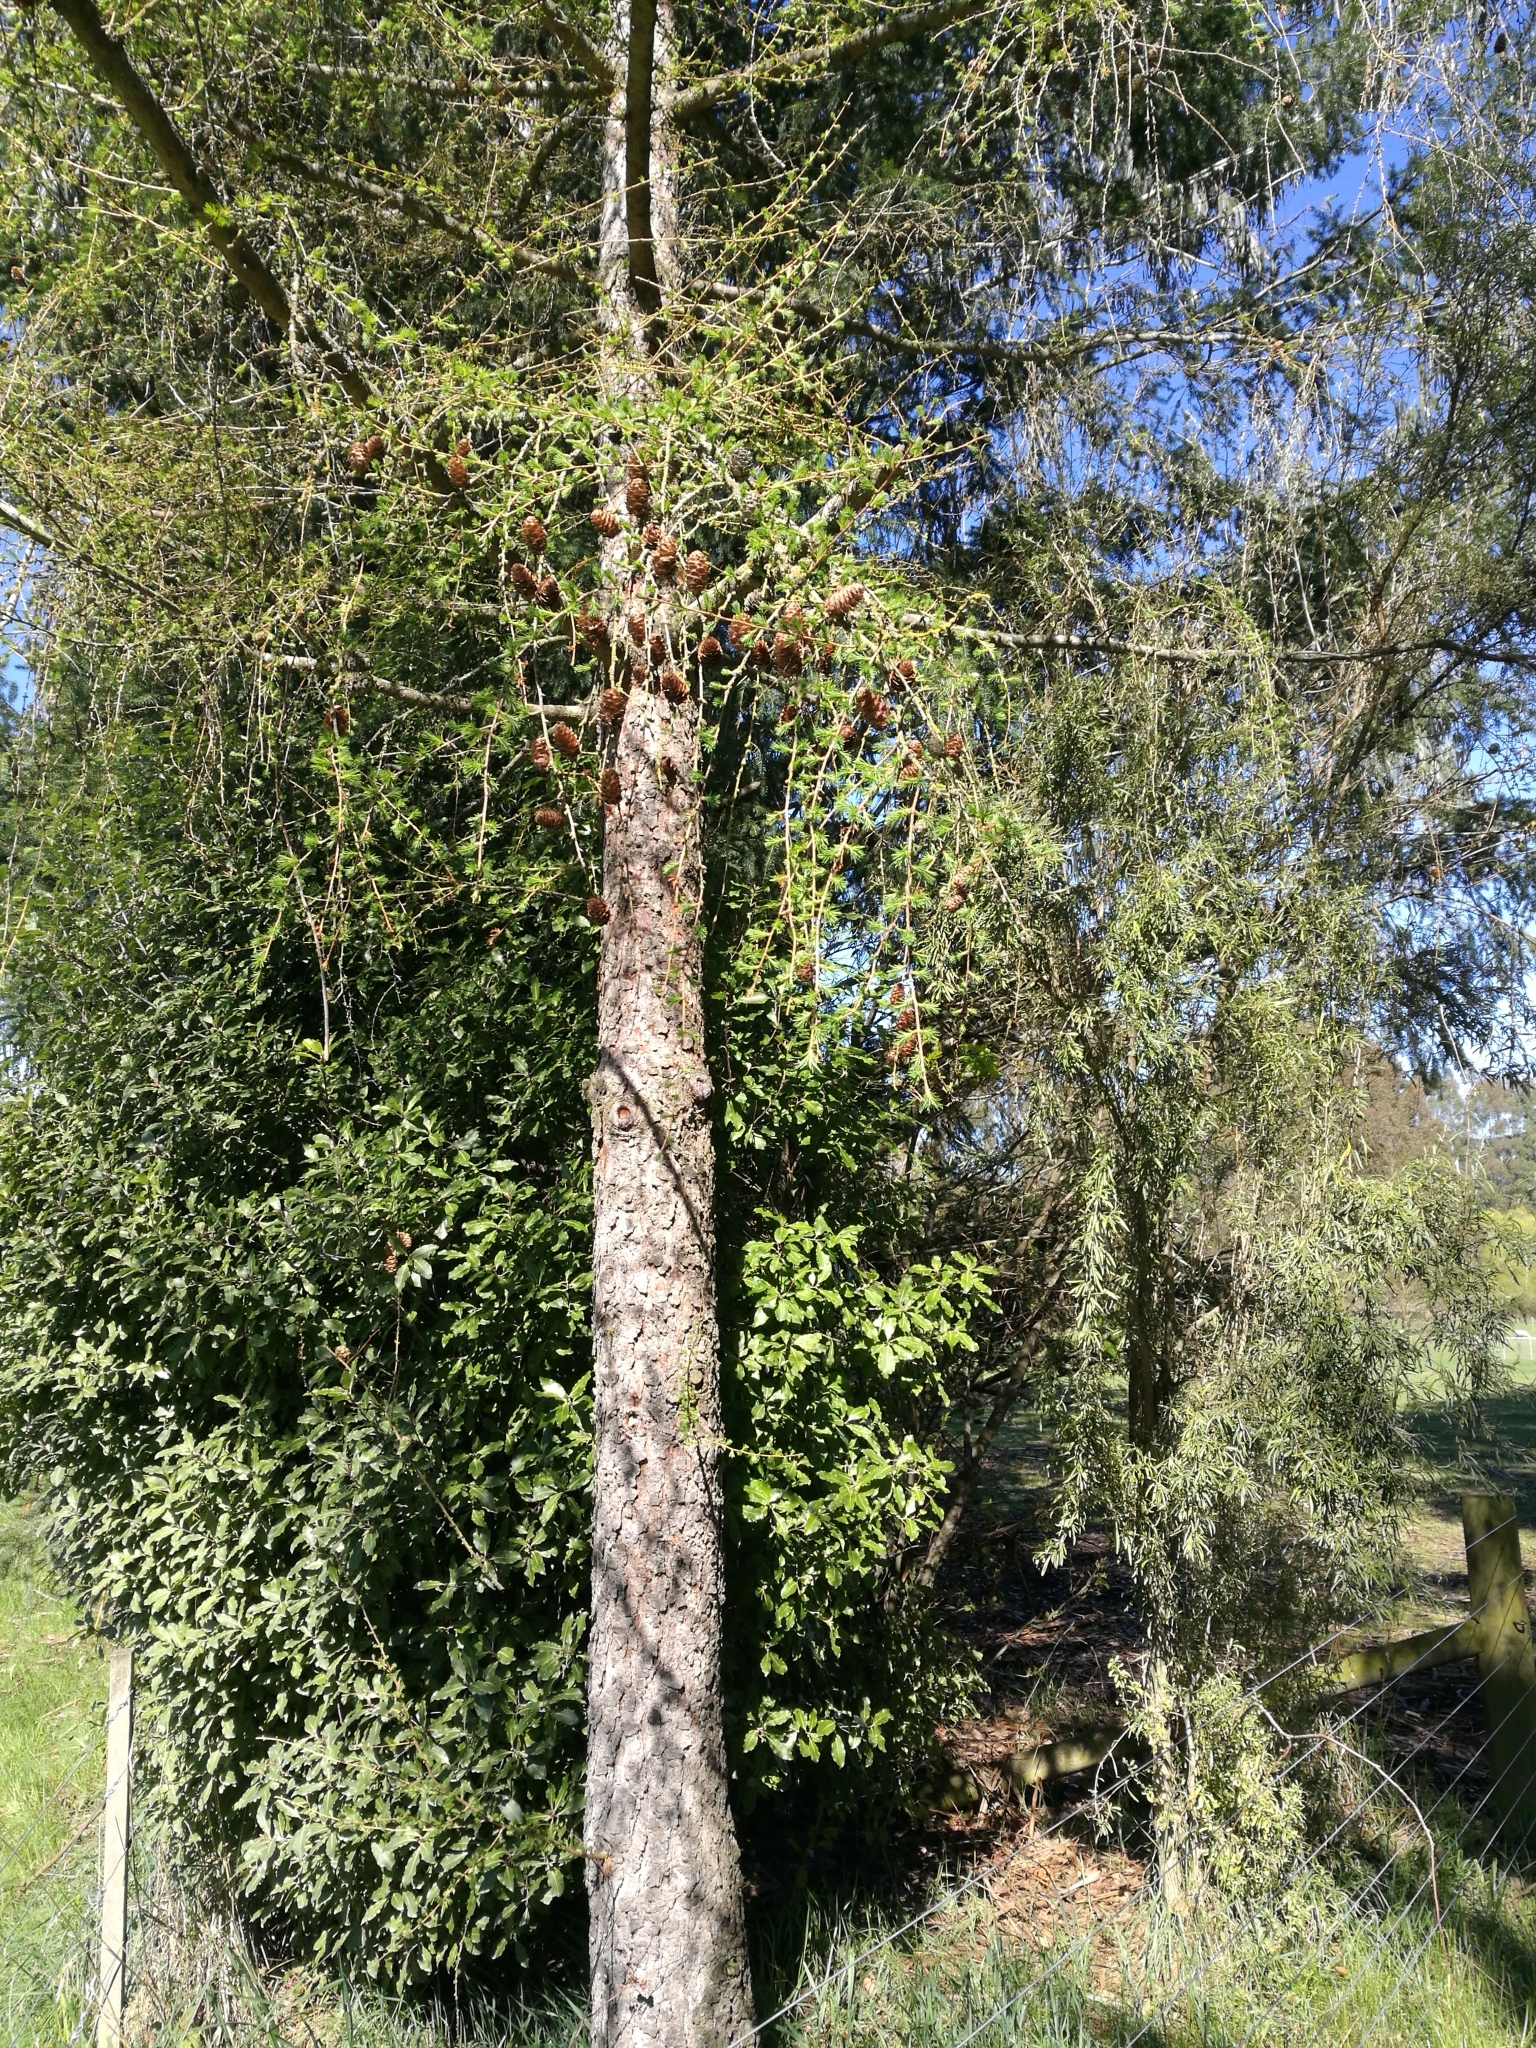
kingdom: Plantae
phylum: Tracheophyta
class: Pinopsida
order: Pinales
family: Pinaceae
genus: Larix
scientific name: Larix decidua
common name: European larch
